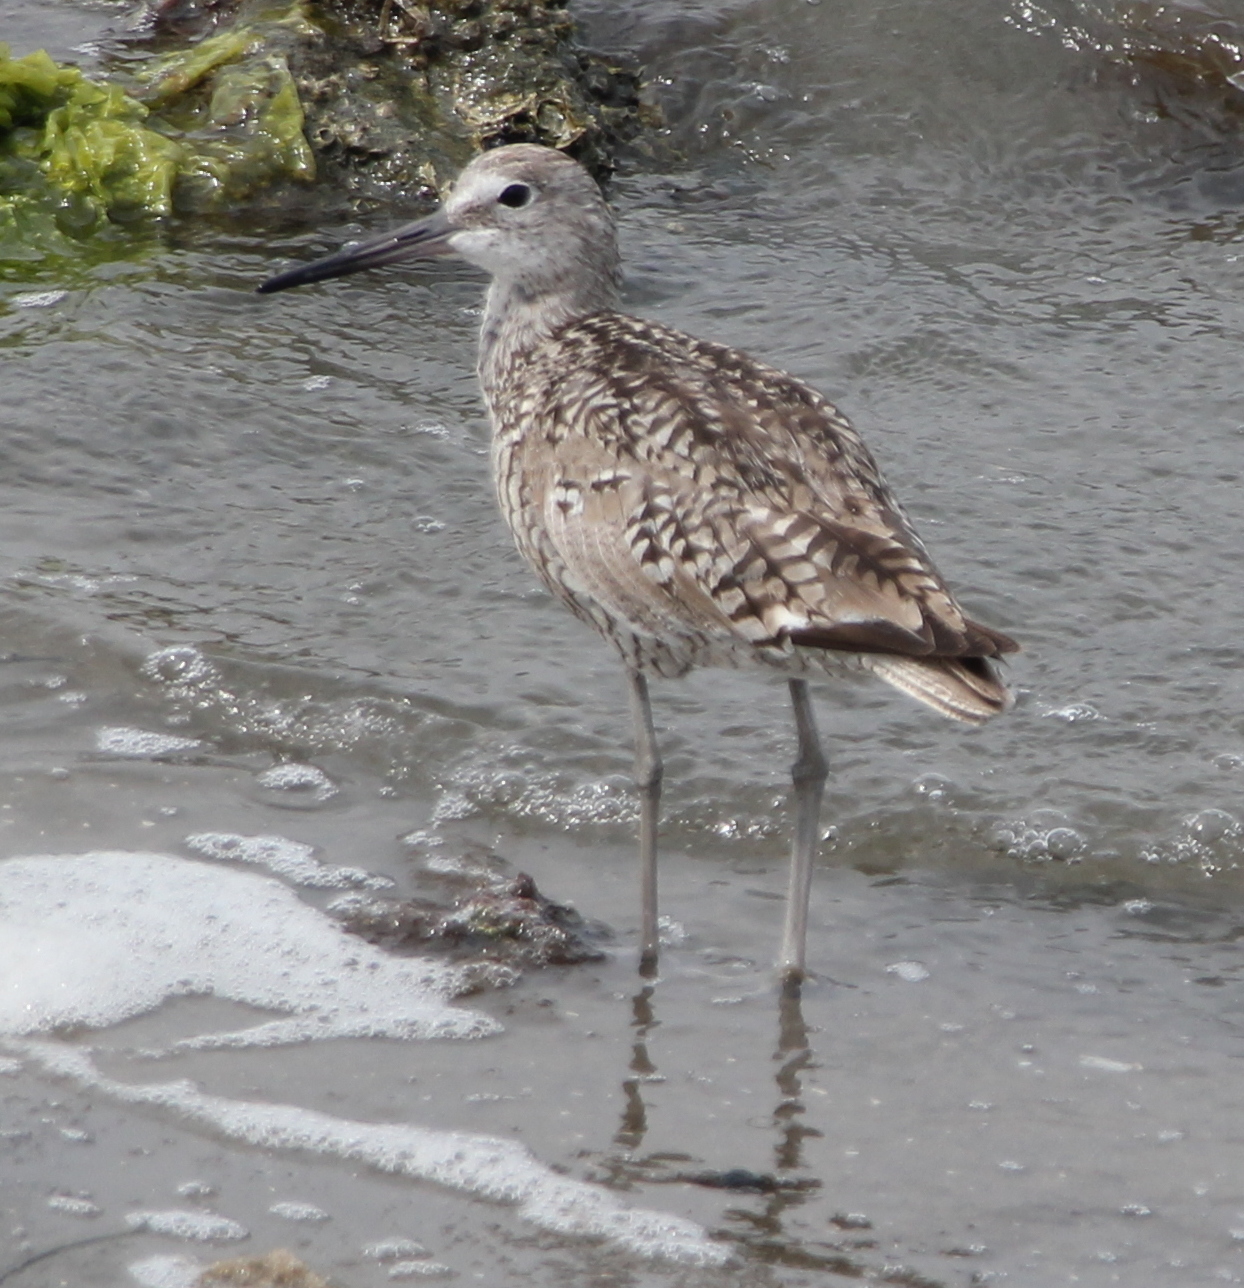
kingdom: Animalia
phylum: Chordata
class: Aves
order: Charadriiformes
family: Scolopacidae
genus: Tringa
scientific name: Tringa semipalmata
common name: Willet
